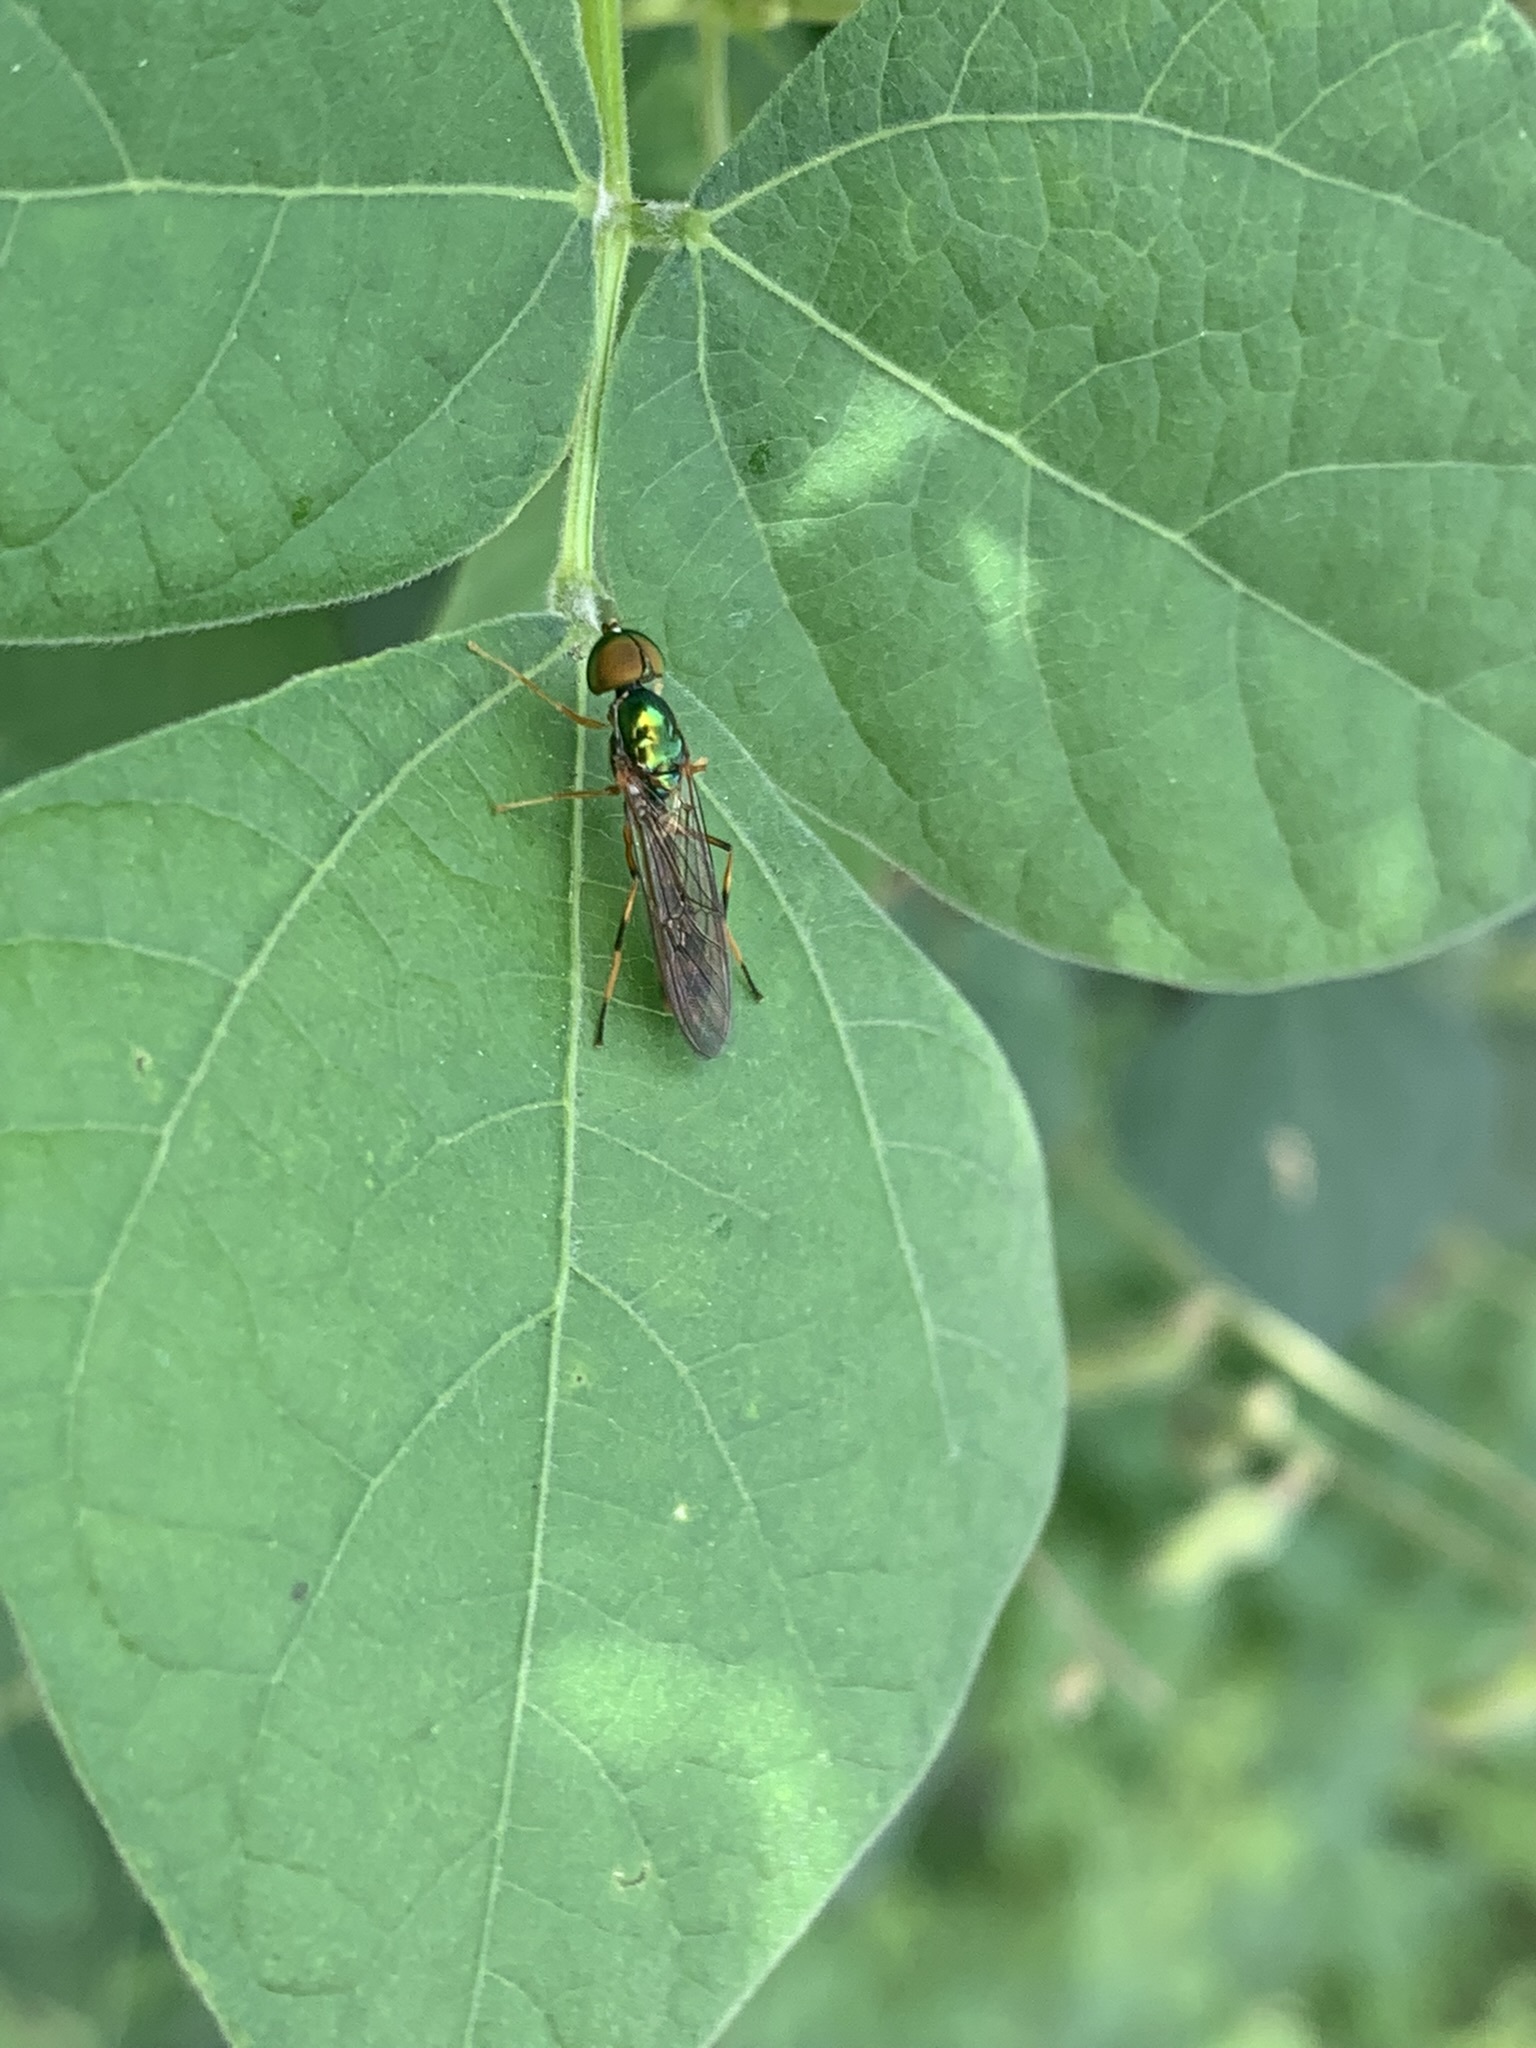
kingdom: Animalia
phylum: Arthropoda
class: Insecta
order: Diptera
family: Stratiomyidae
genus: Sargus
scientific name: Sargus fasciatus
